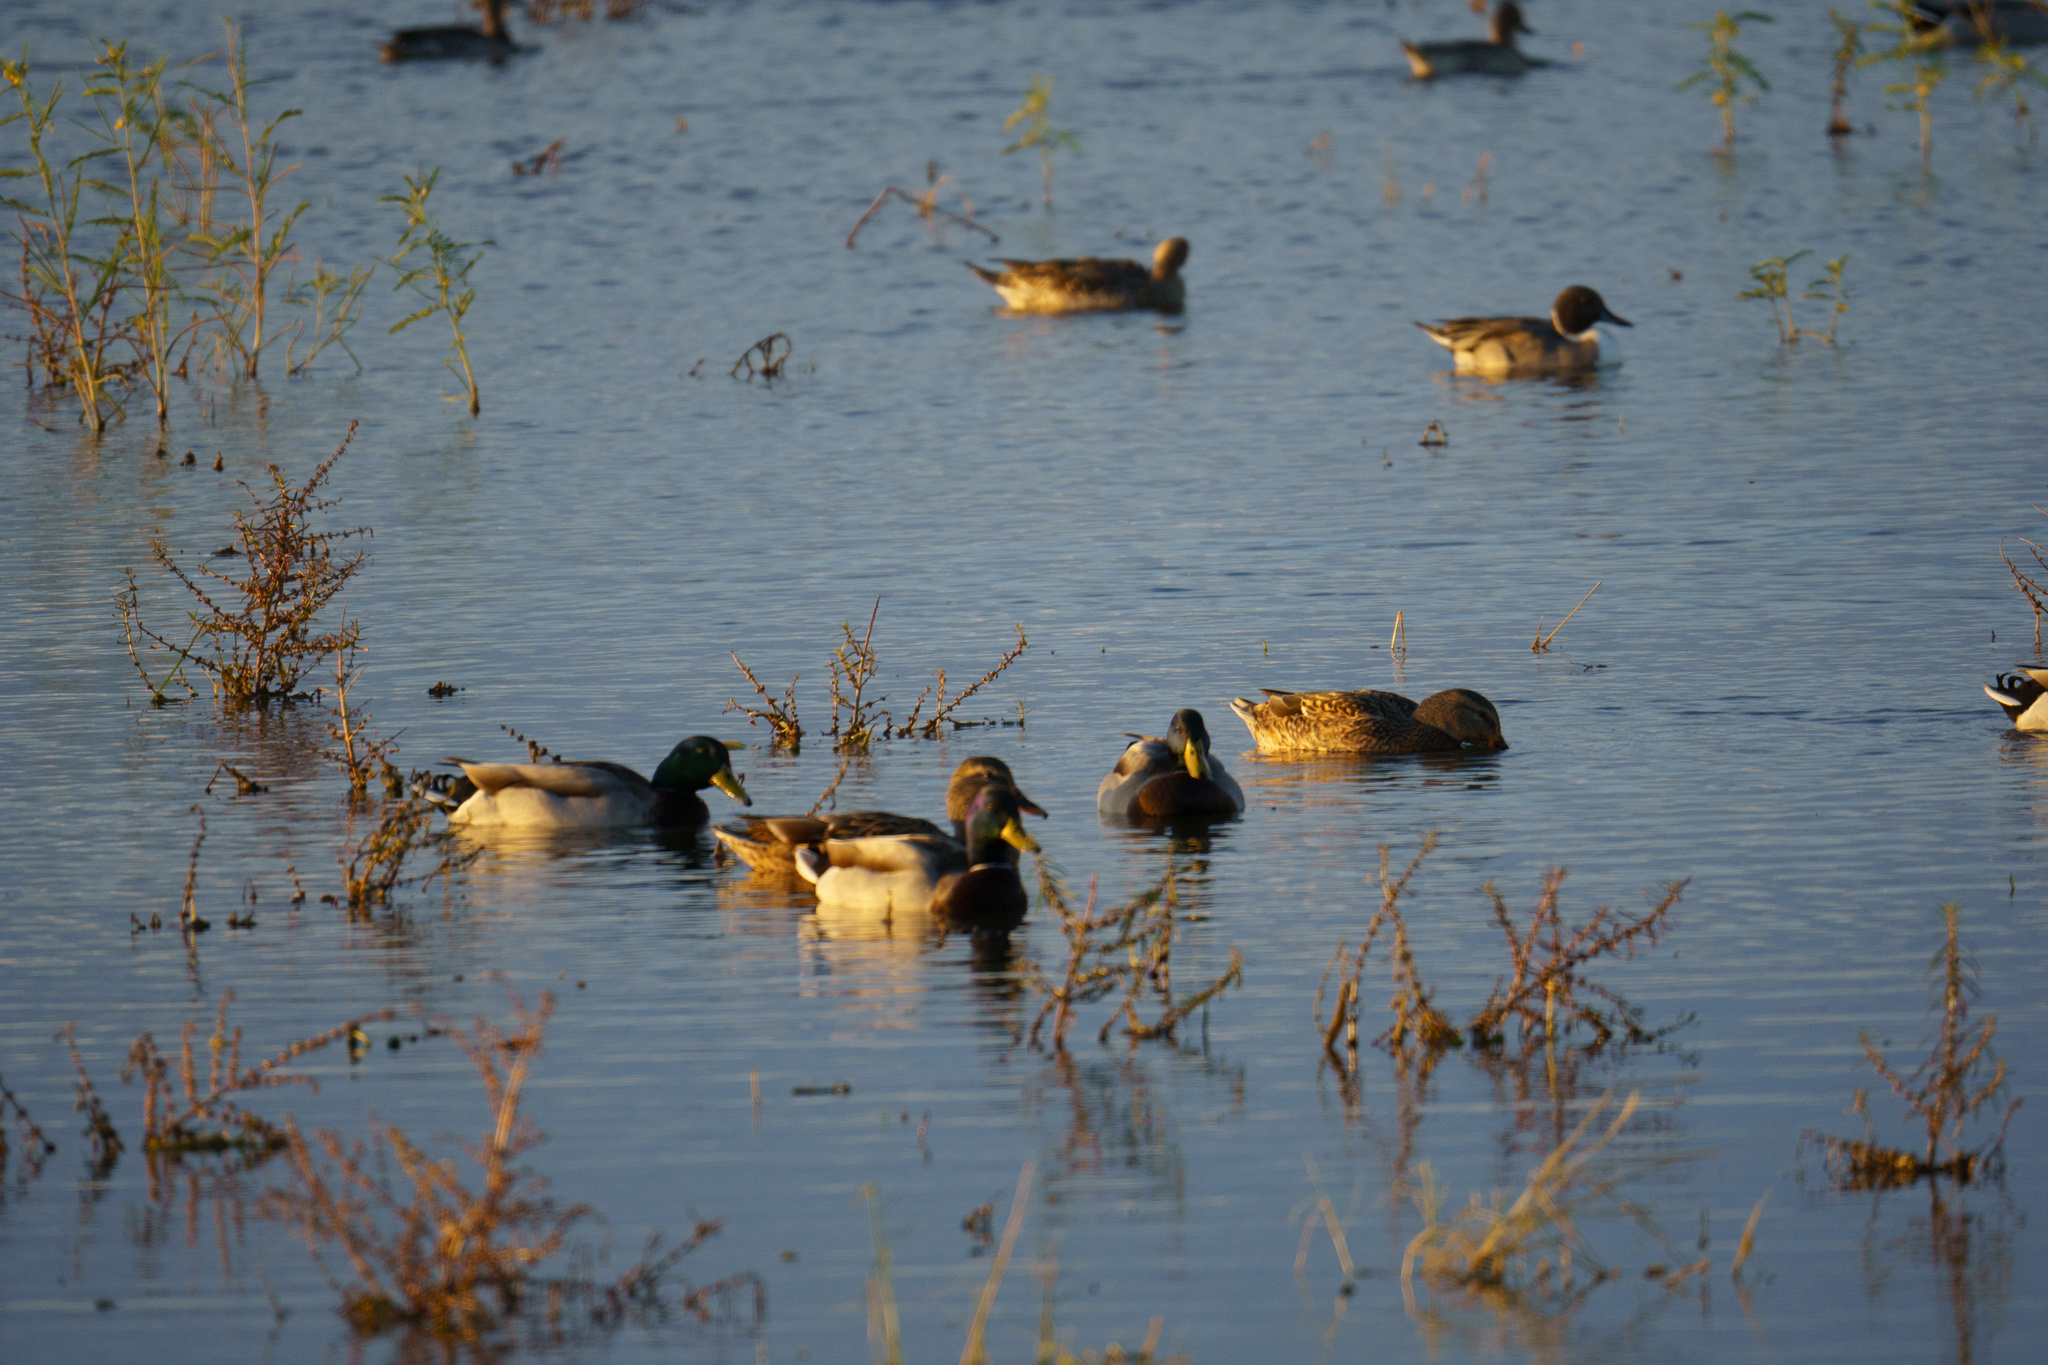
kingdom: Animalia
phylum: Chordata
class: Aves
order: Anseriformes
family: Anatidae
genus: Anas
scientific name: Anas platyrhynchos
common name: Mallard
